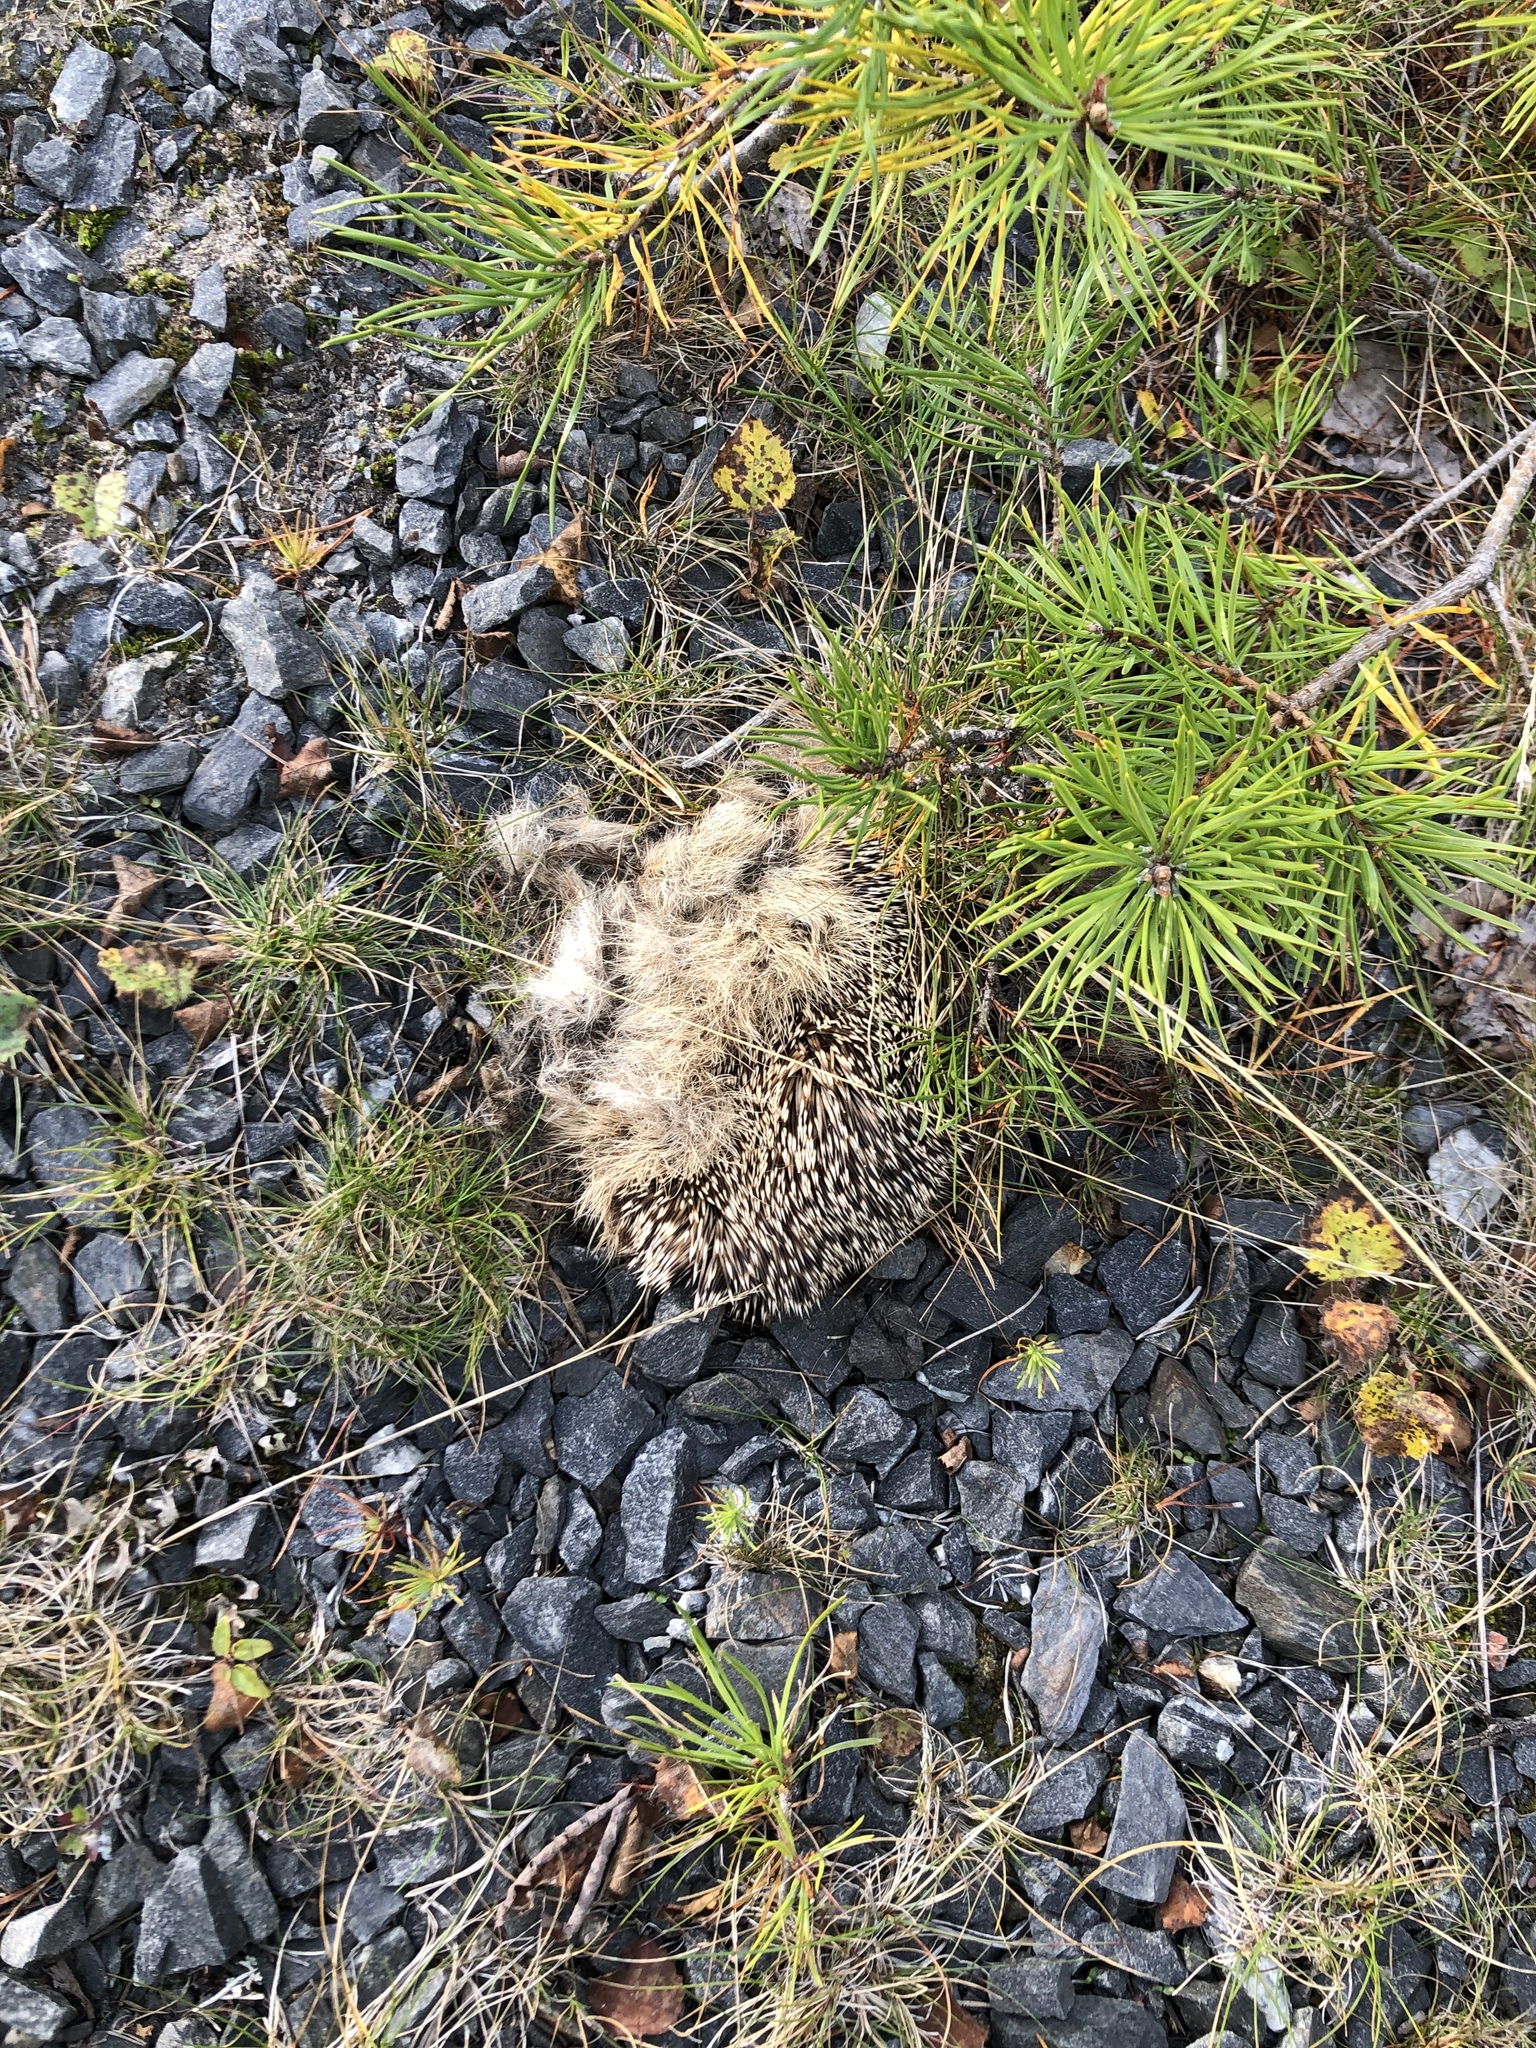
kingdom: Animalia
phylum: Chordata
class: Mammalia
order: Erinaceomorpha
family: Erinaceidae
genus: Erinaceus
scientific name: Erinaceus europaeus
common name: West european hedgehog
